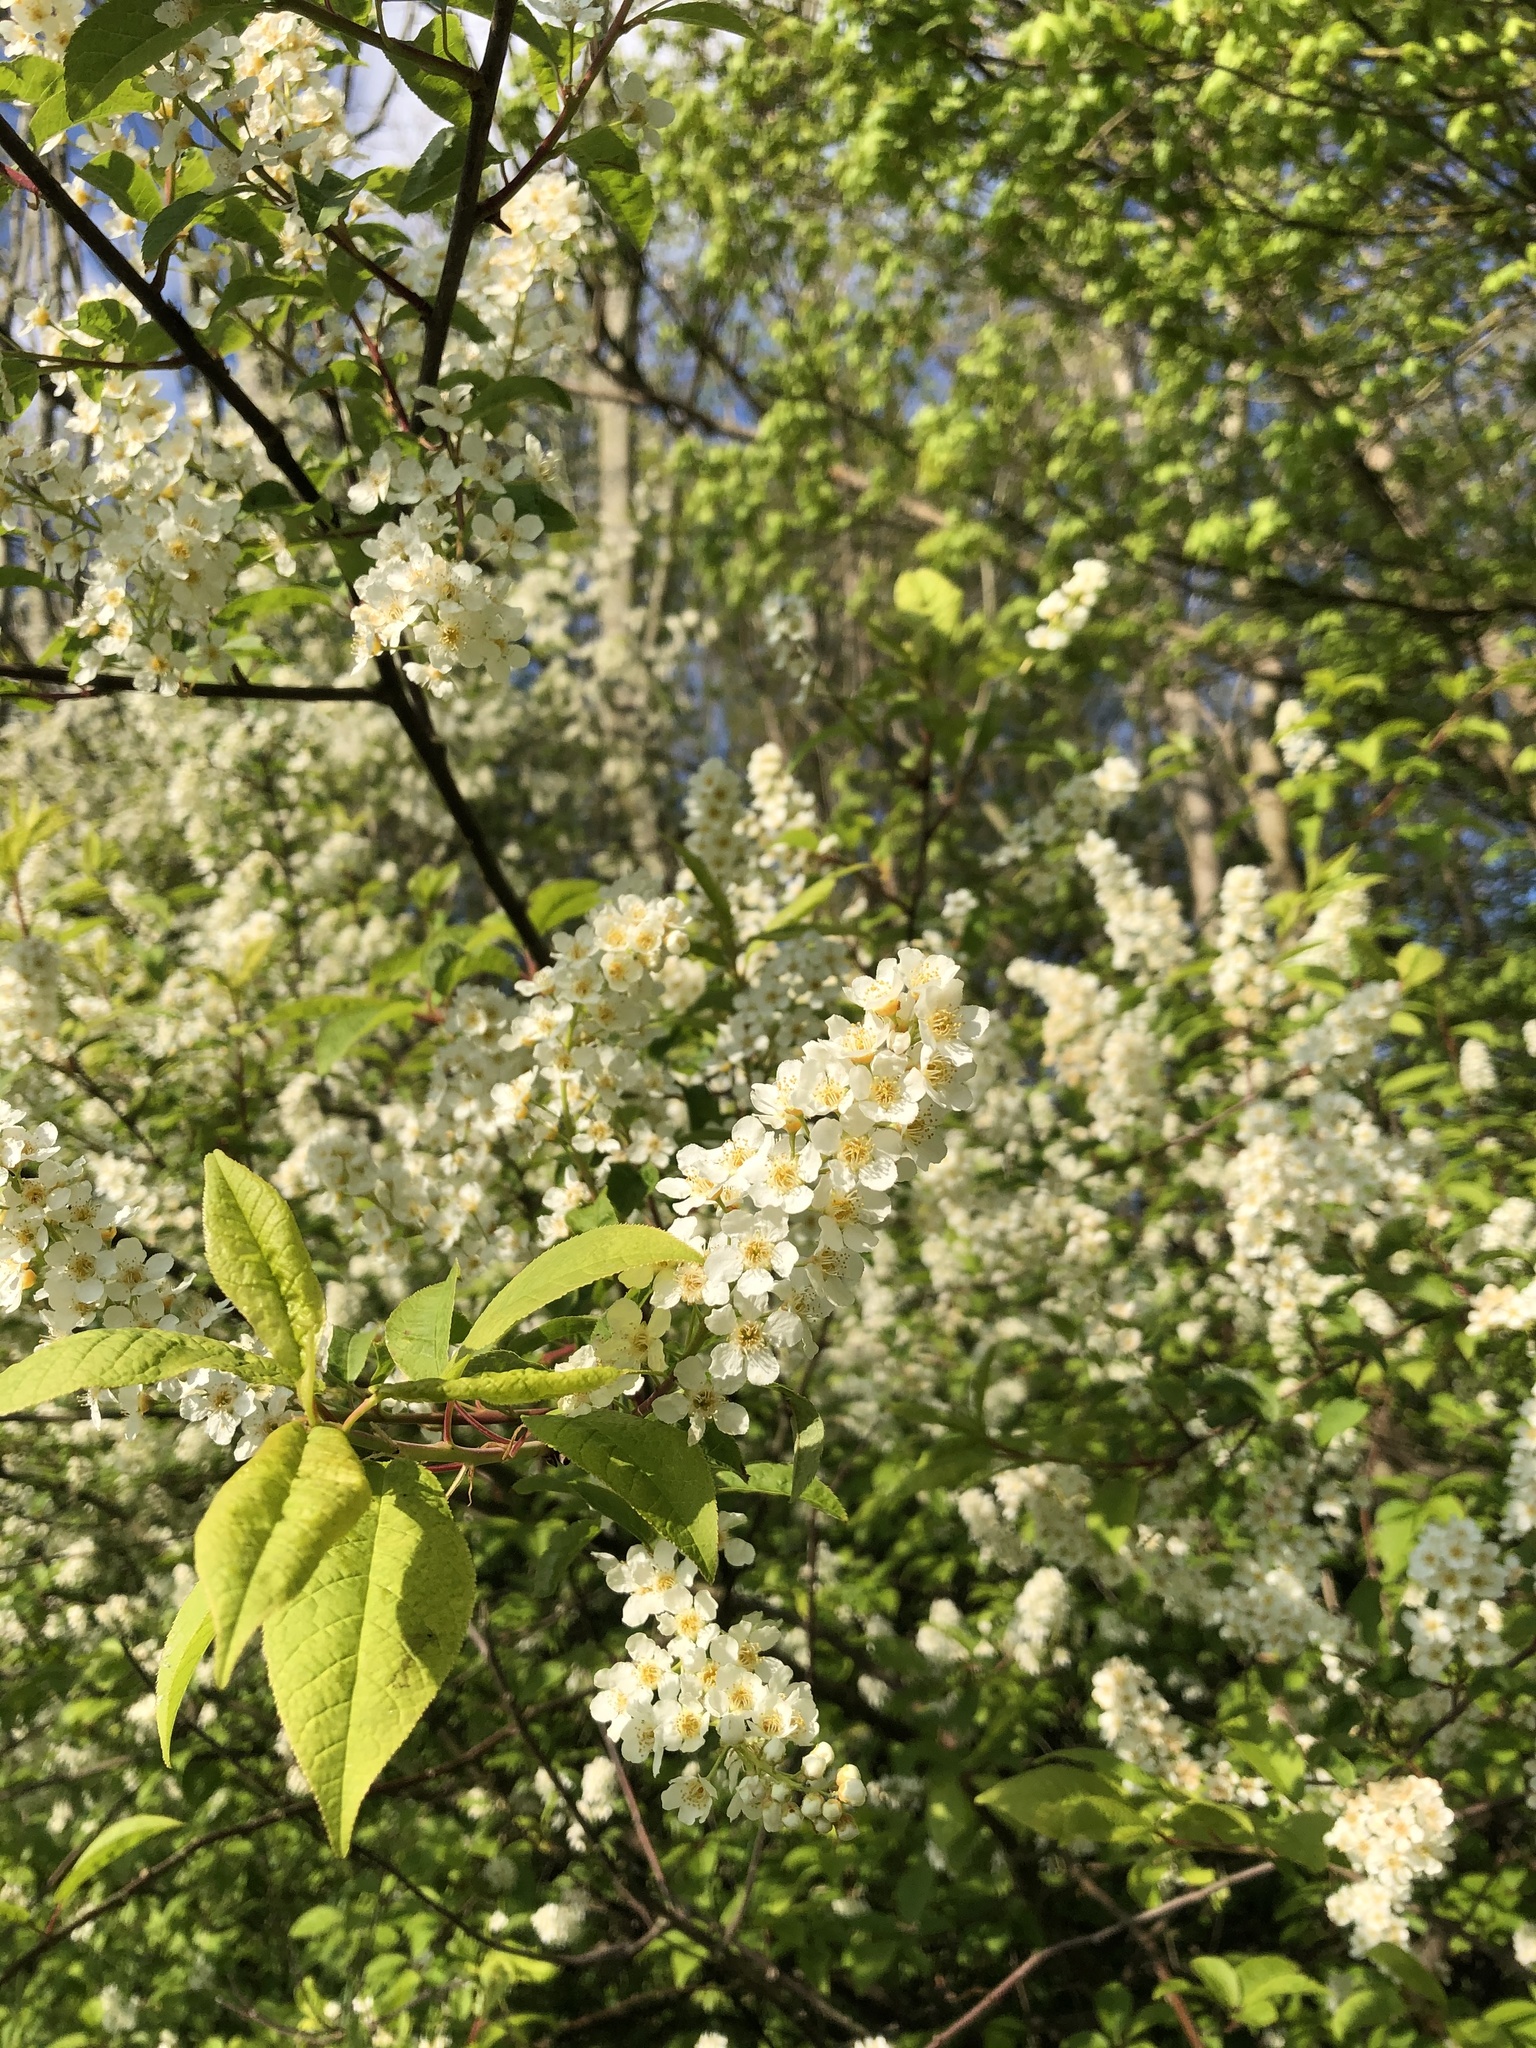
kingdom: Plantae
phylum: Tracheophyta
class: Magnoliopsida
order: Rosales
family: Rosaceae
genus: Prunus
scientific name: Prunus padus
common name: Bird cherry
